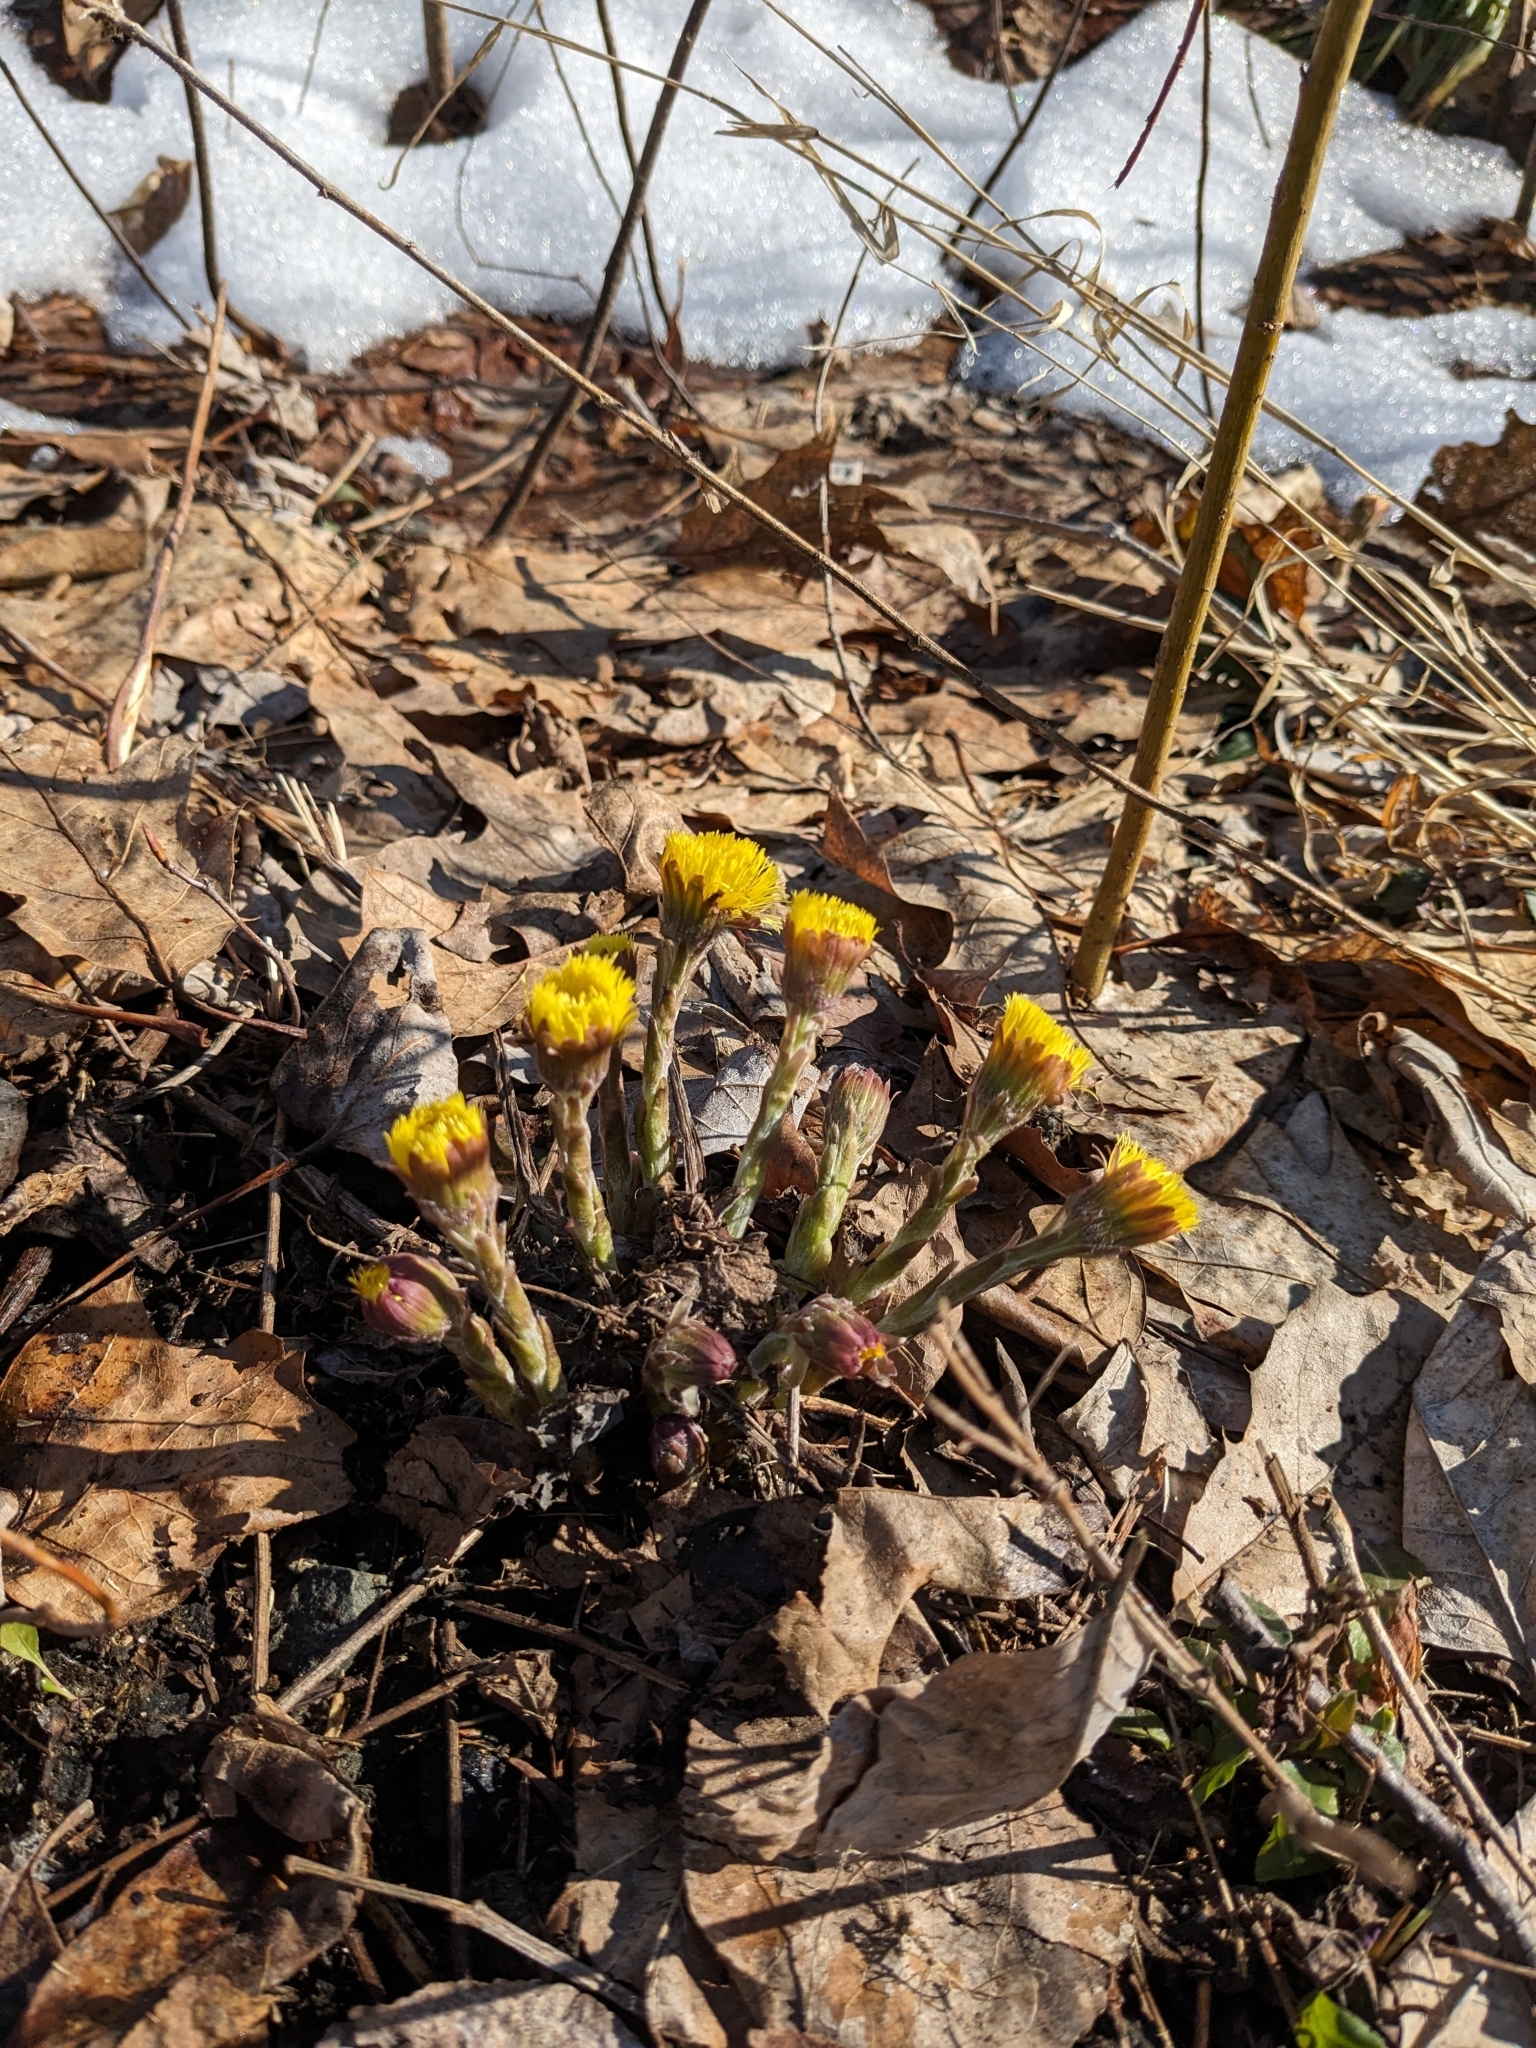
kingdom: Plantae
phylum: Tracheophyta
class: Magnoliopsida
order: Asterales
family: Asteraceae
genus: Tussilago
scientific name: Tussilago farfara
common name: Coltsfoot
